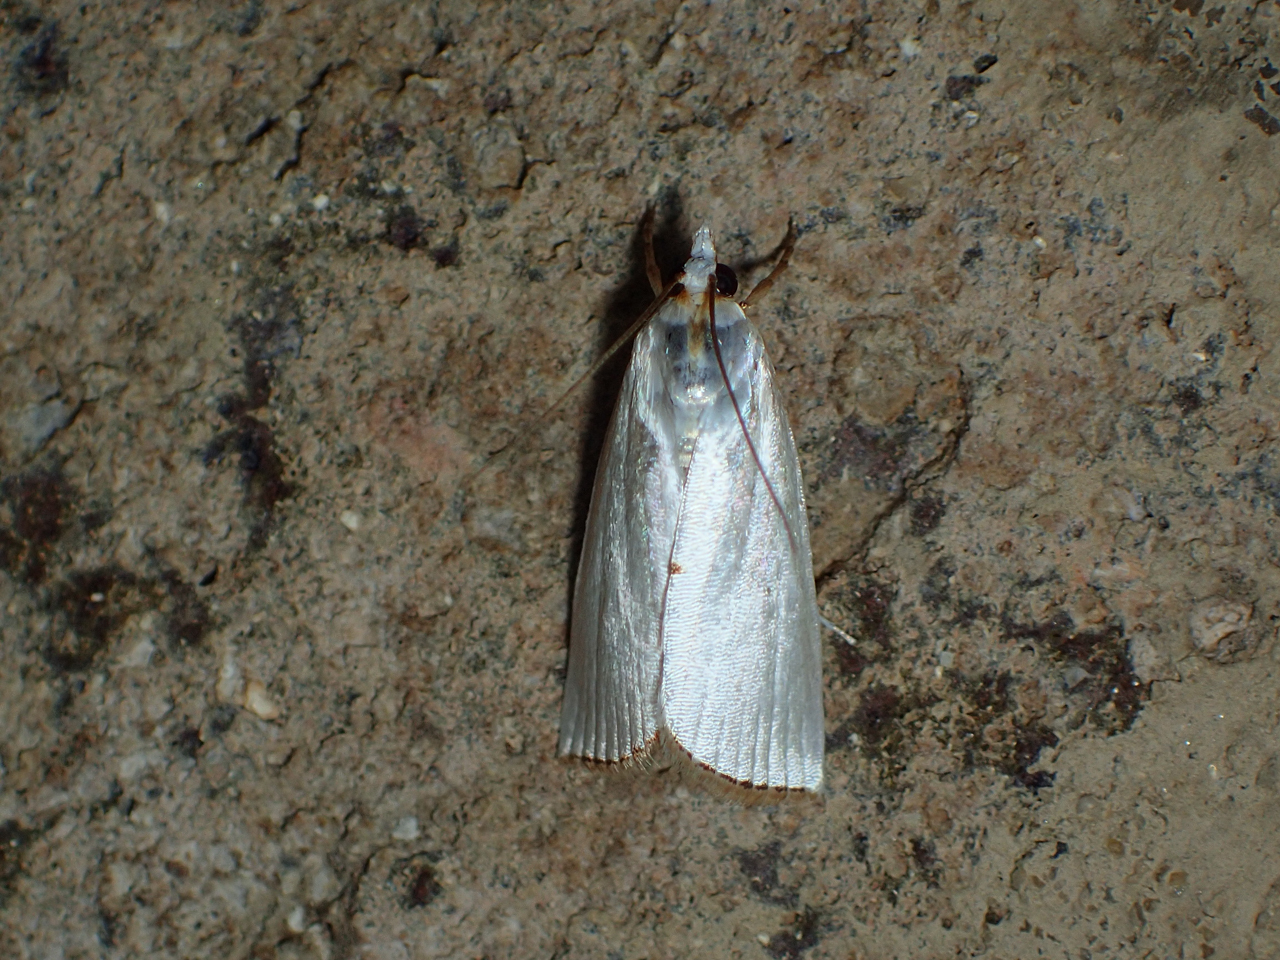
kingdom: Animalia
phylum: Arthropoda
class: Insecta
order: Lepidoptera
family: Crambidae
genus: Argyria
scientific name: Argyria nivalis
